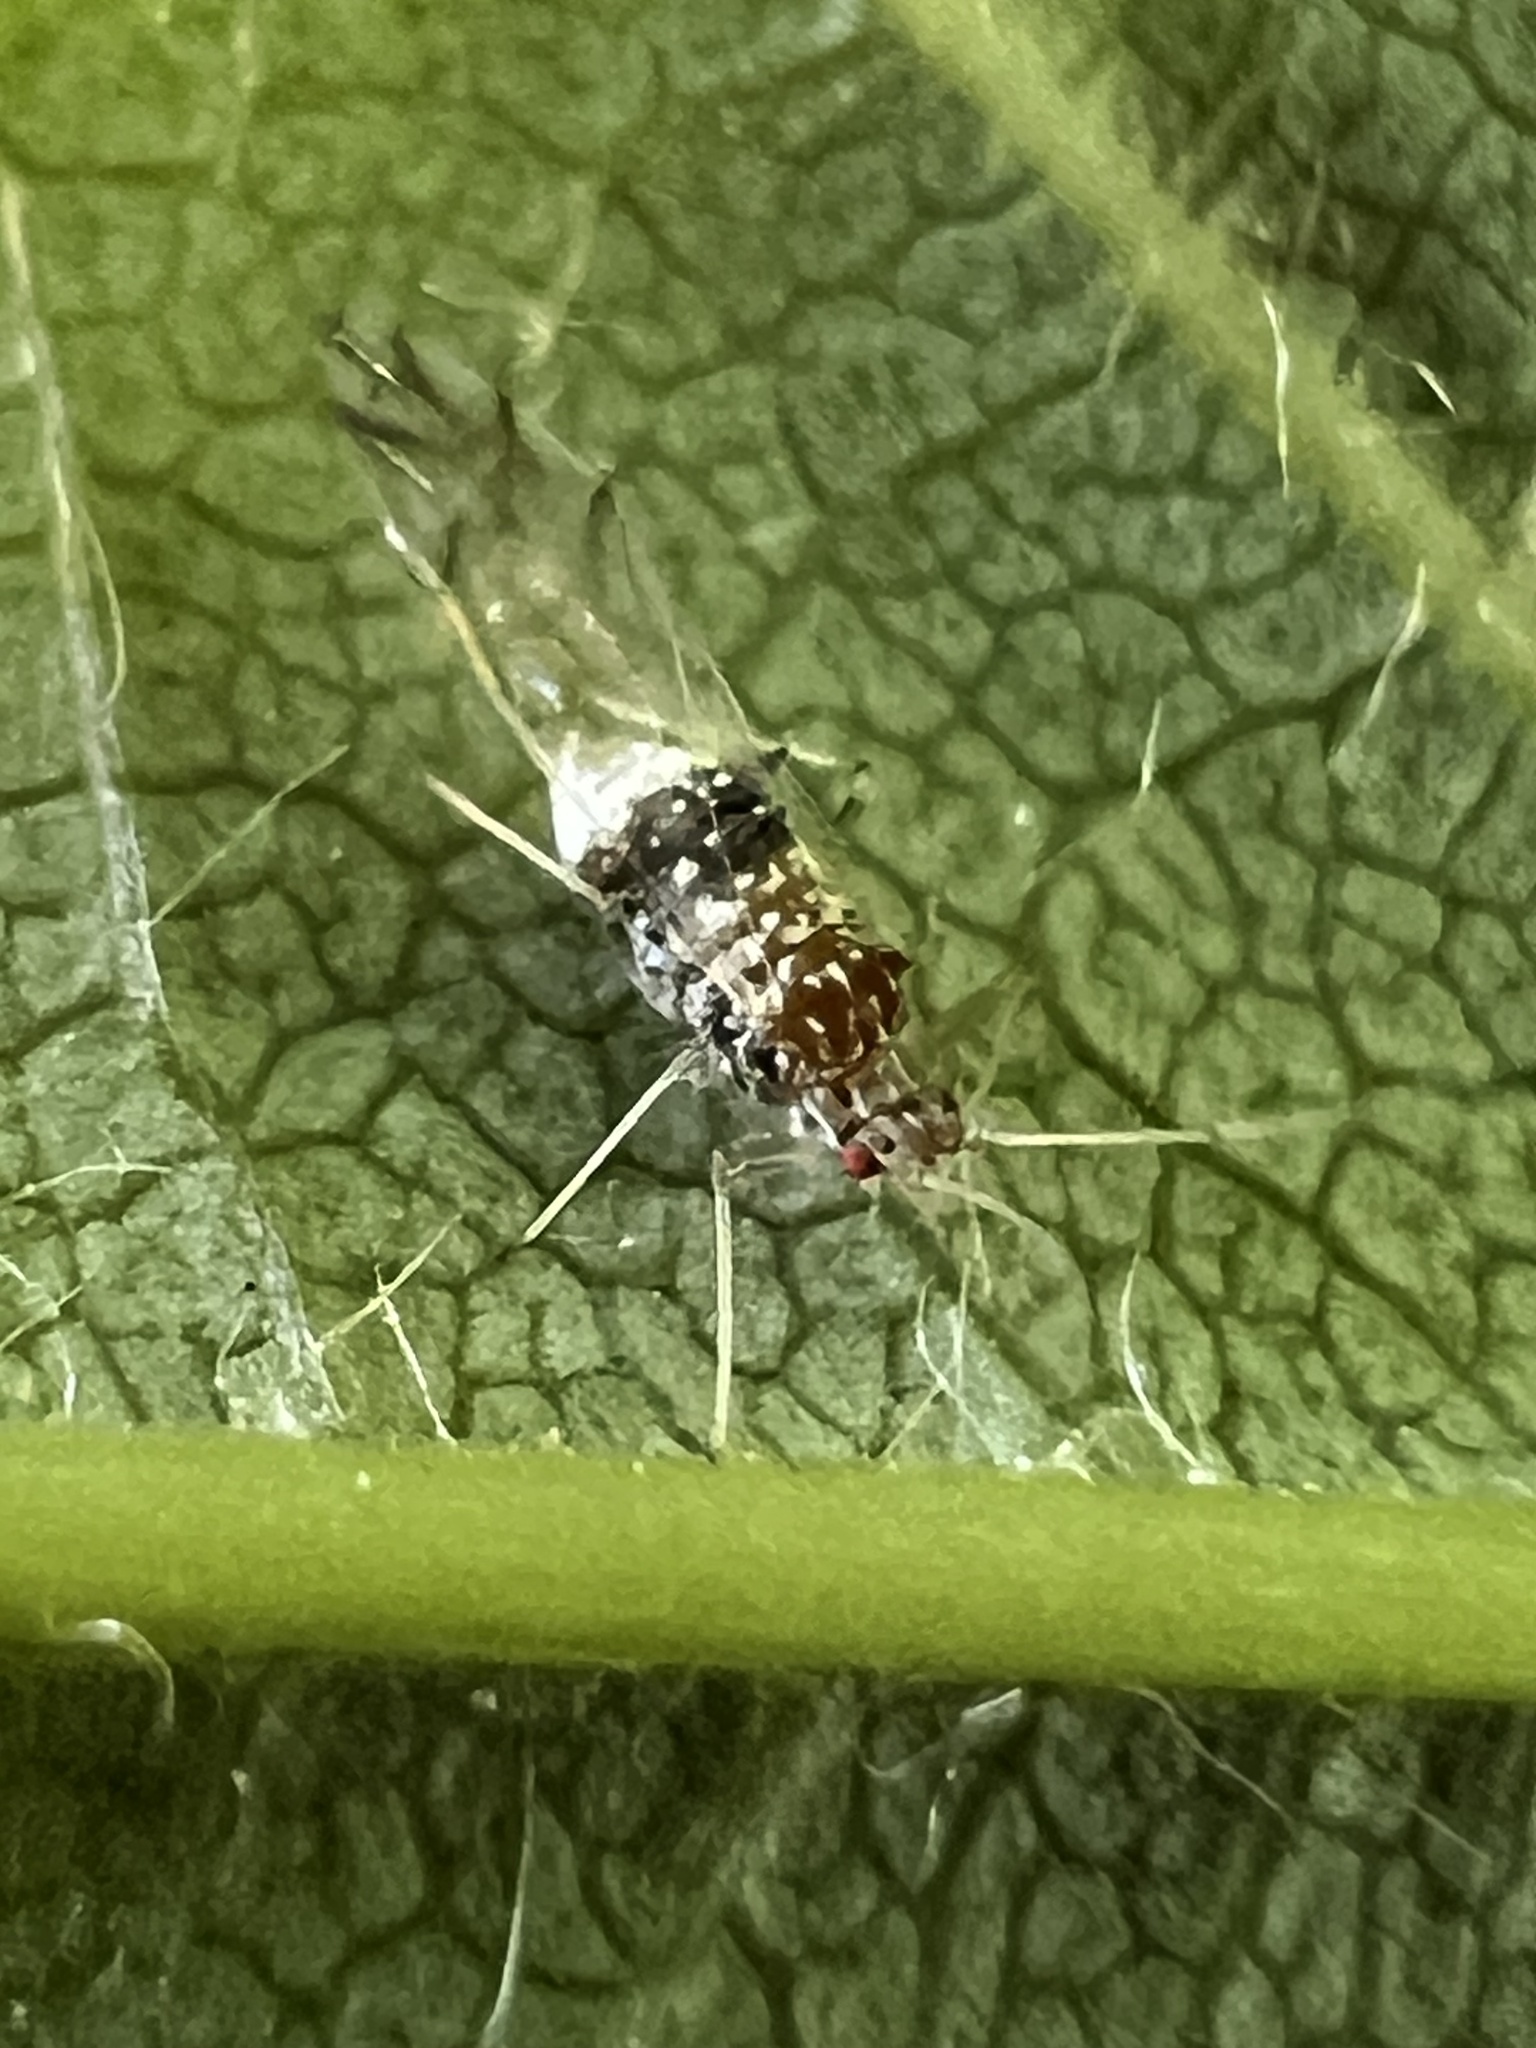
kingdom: Animalia
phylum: Arthropoda
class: Insecta
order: Hemiptera
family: Aphididae
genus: Drepanaphis
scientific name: Drepanaphis acerifoliae
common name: Painted maple aphid
